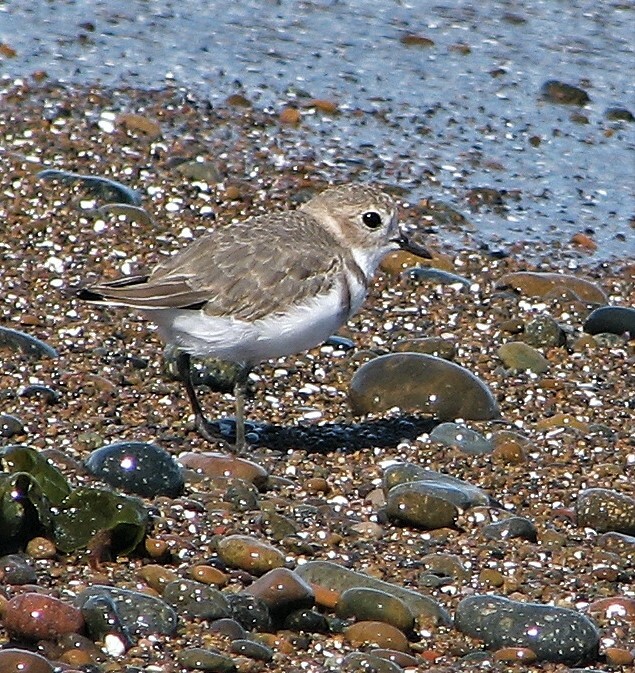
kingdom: Animalia
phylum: Chordata
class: Aves
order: Charadriiformes
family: Charadriidae
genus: Anarhynchus
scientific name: Anarhynchus
